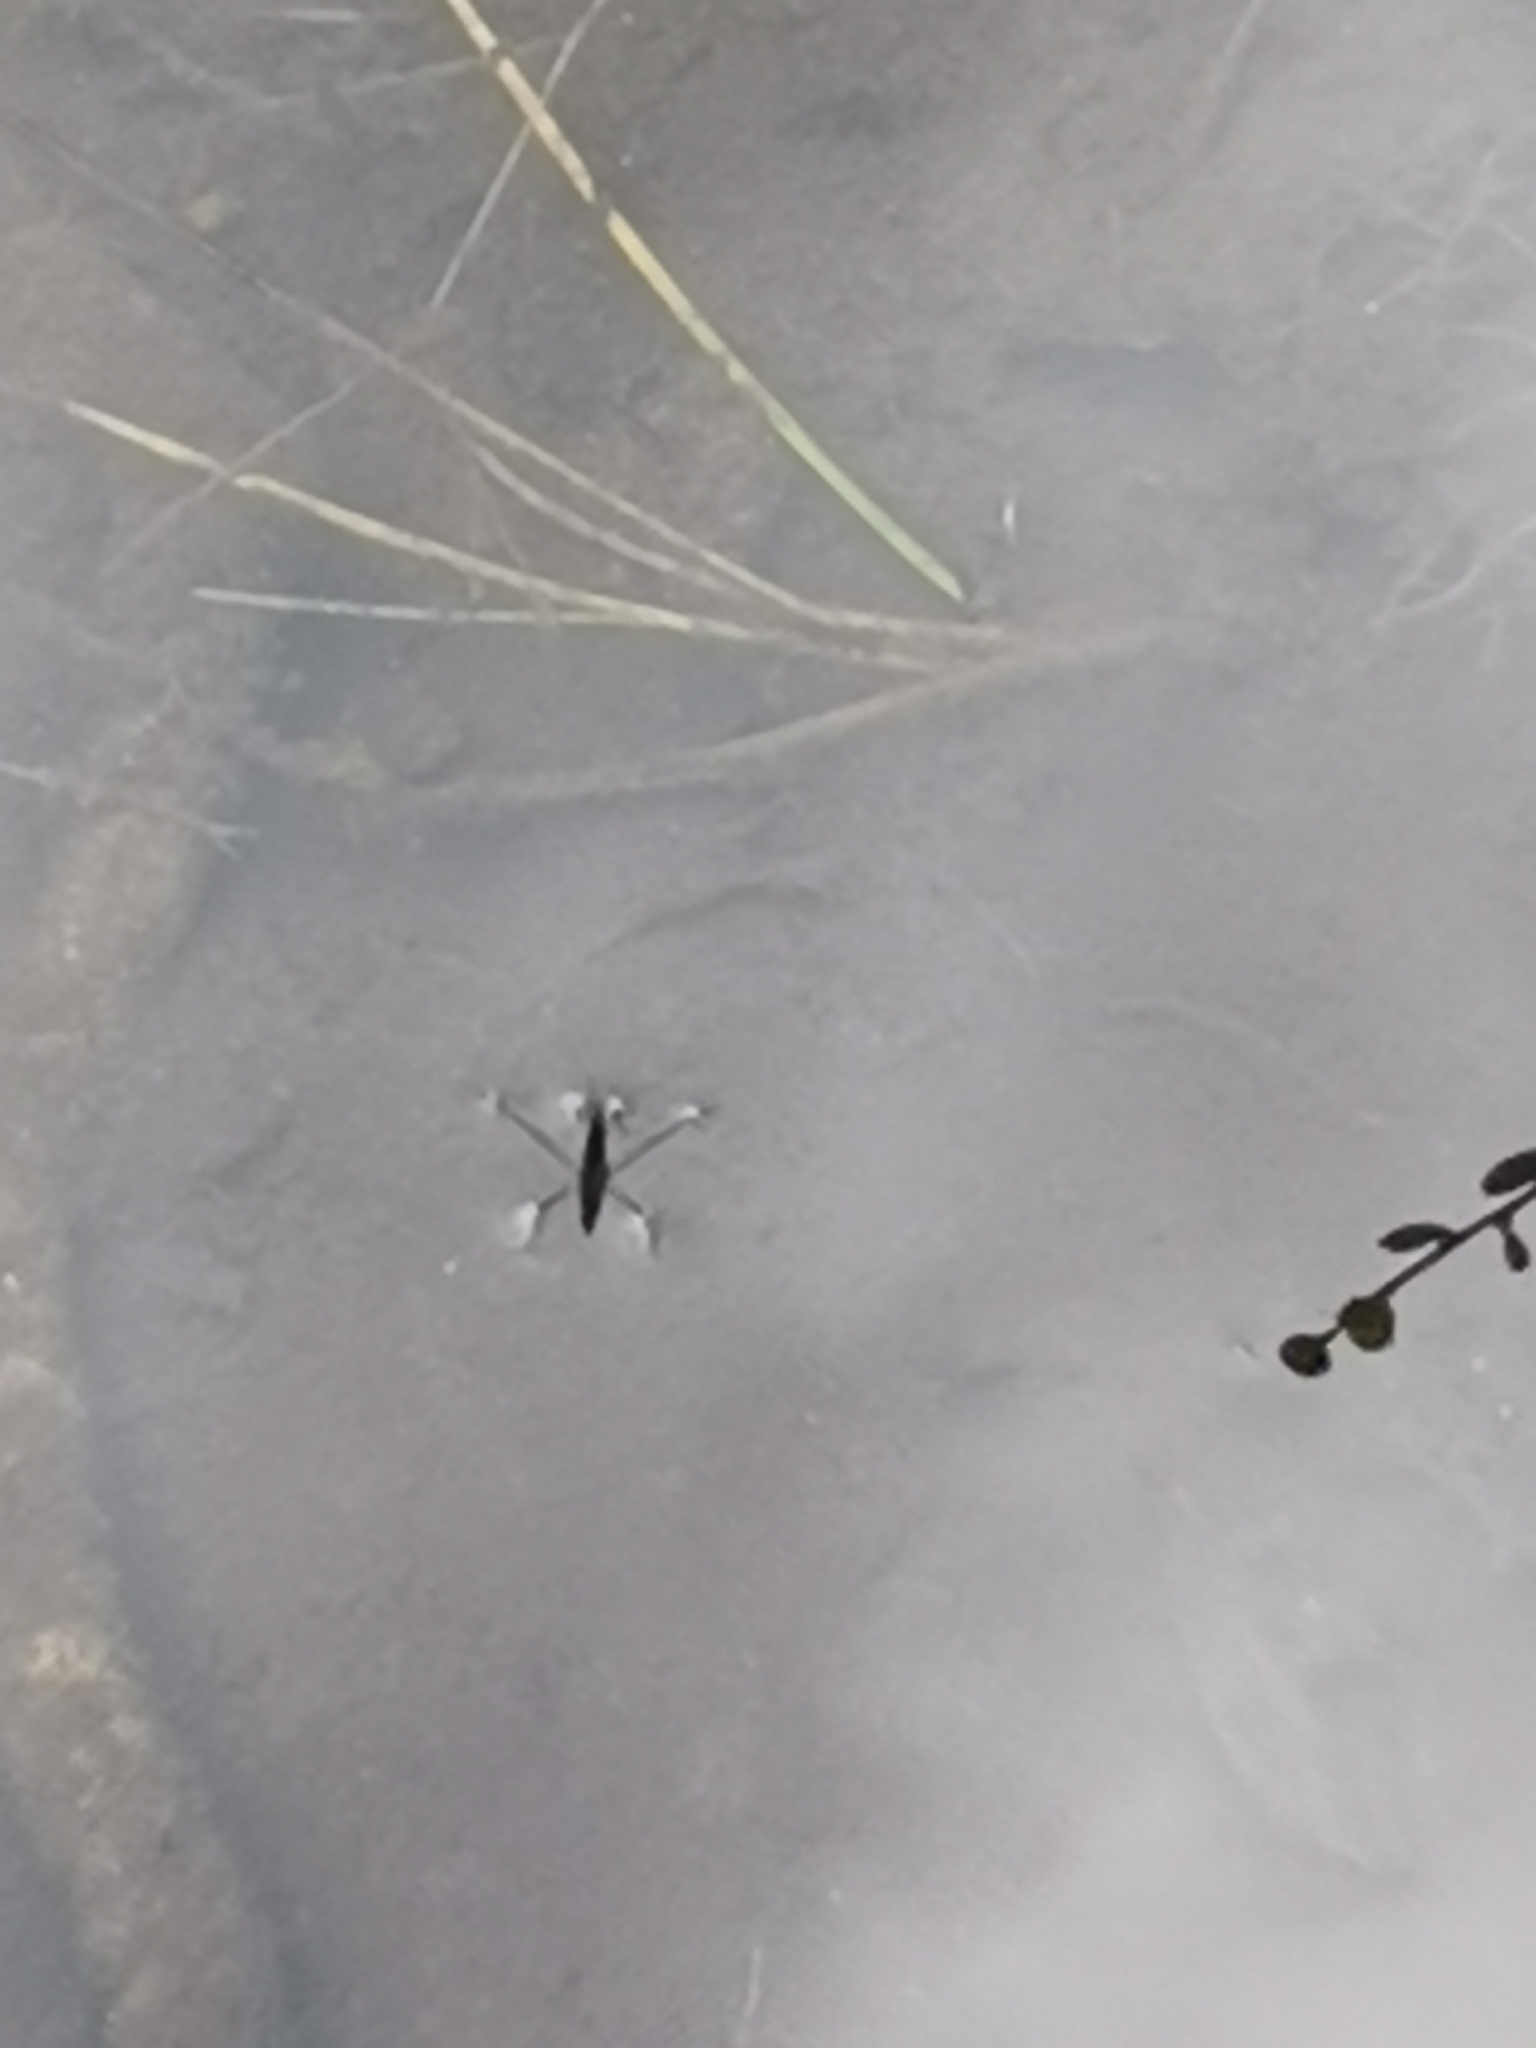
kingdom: Animalia
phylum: Arthropoda
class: Insecta
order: Hemiptera
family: Gerridae
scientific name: Gerridae
